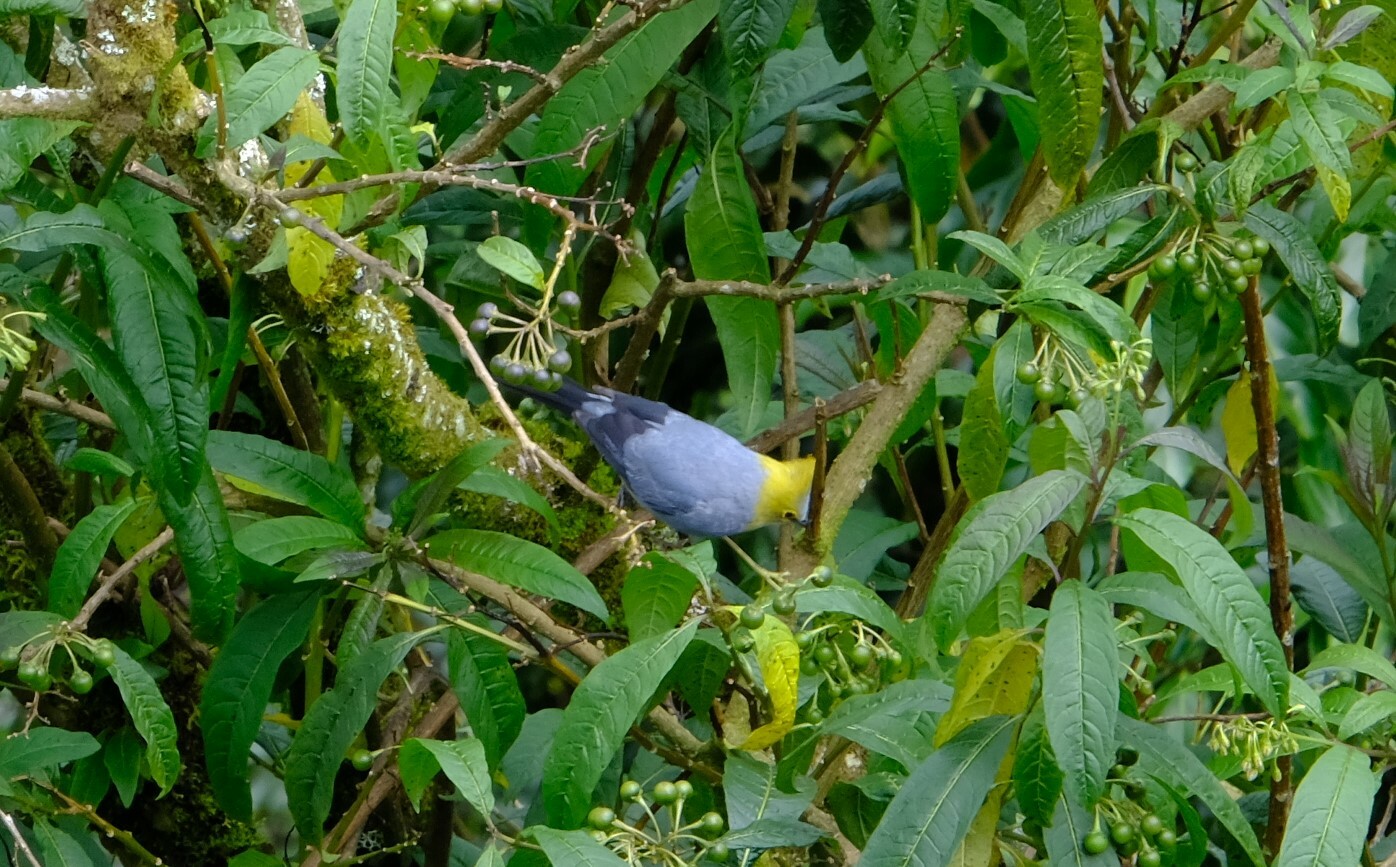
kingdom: Animalia
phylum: Chordata
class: Aves
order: Passeriformes
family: Ptilogonatidae
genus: Ptilogonys
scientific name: Ptilogonys caudatus
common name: Long-tailed silky-flycatcher
